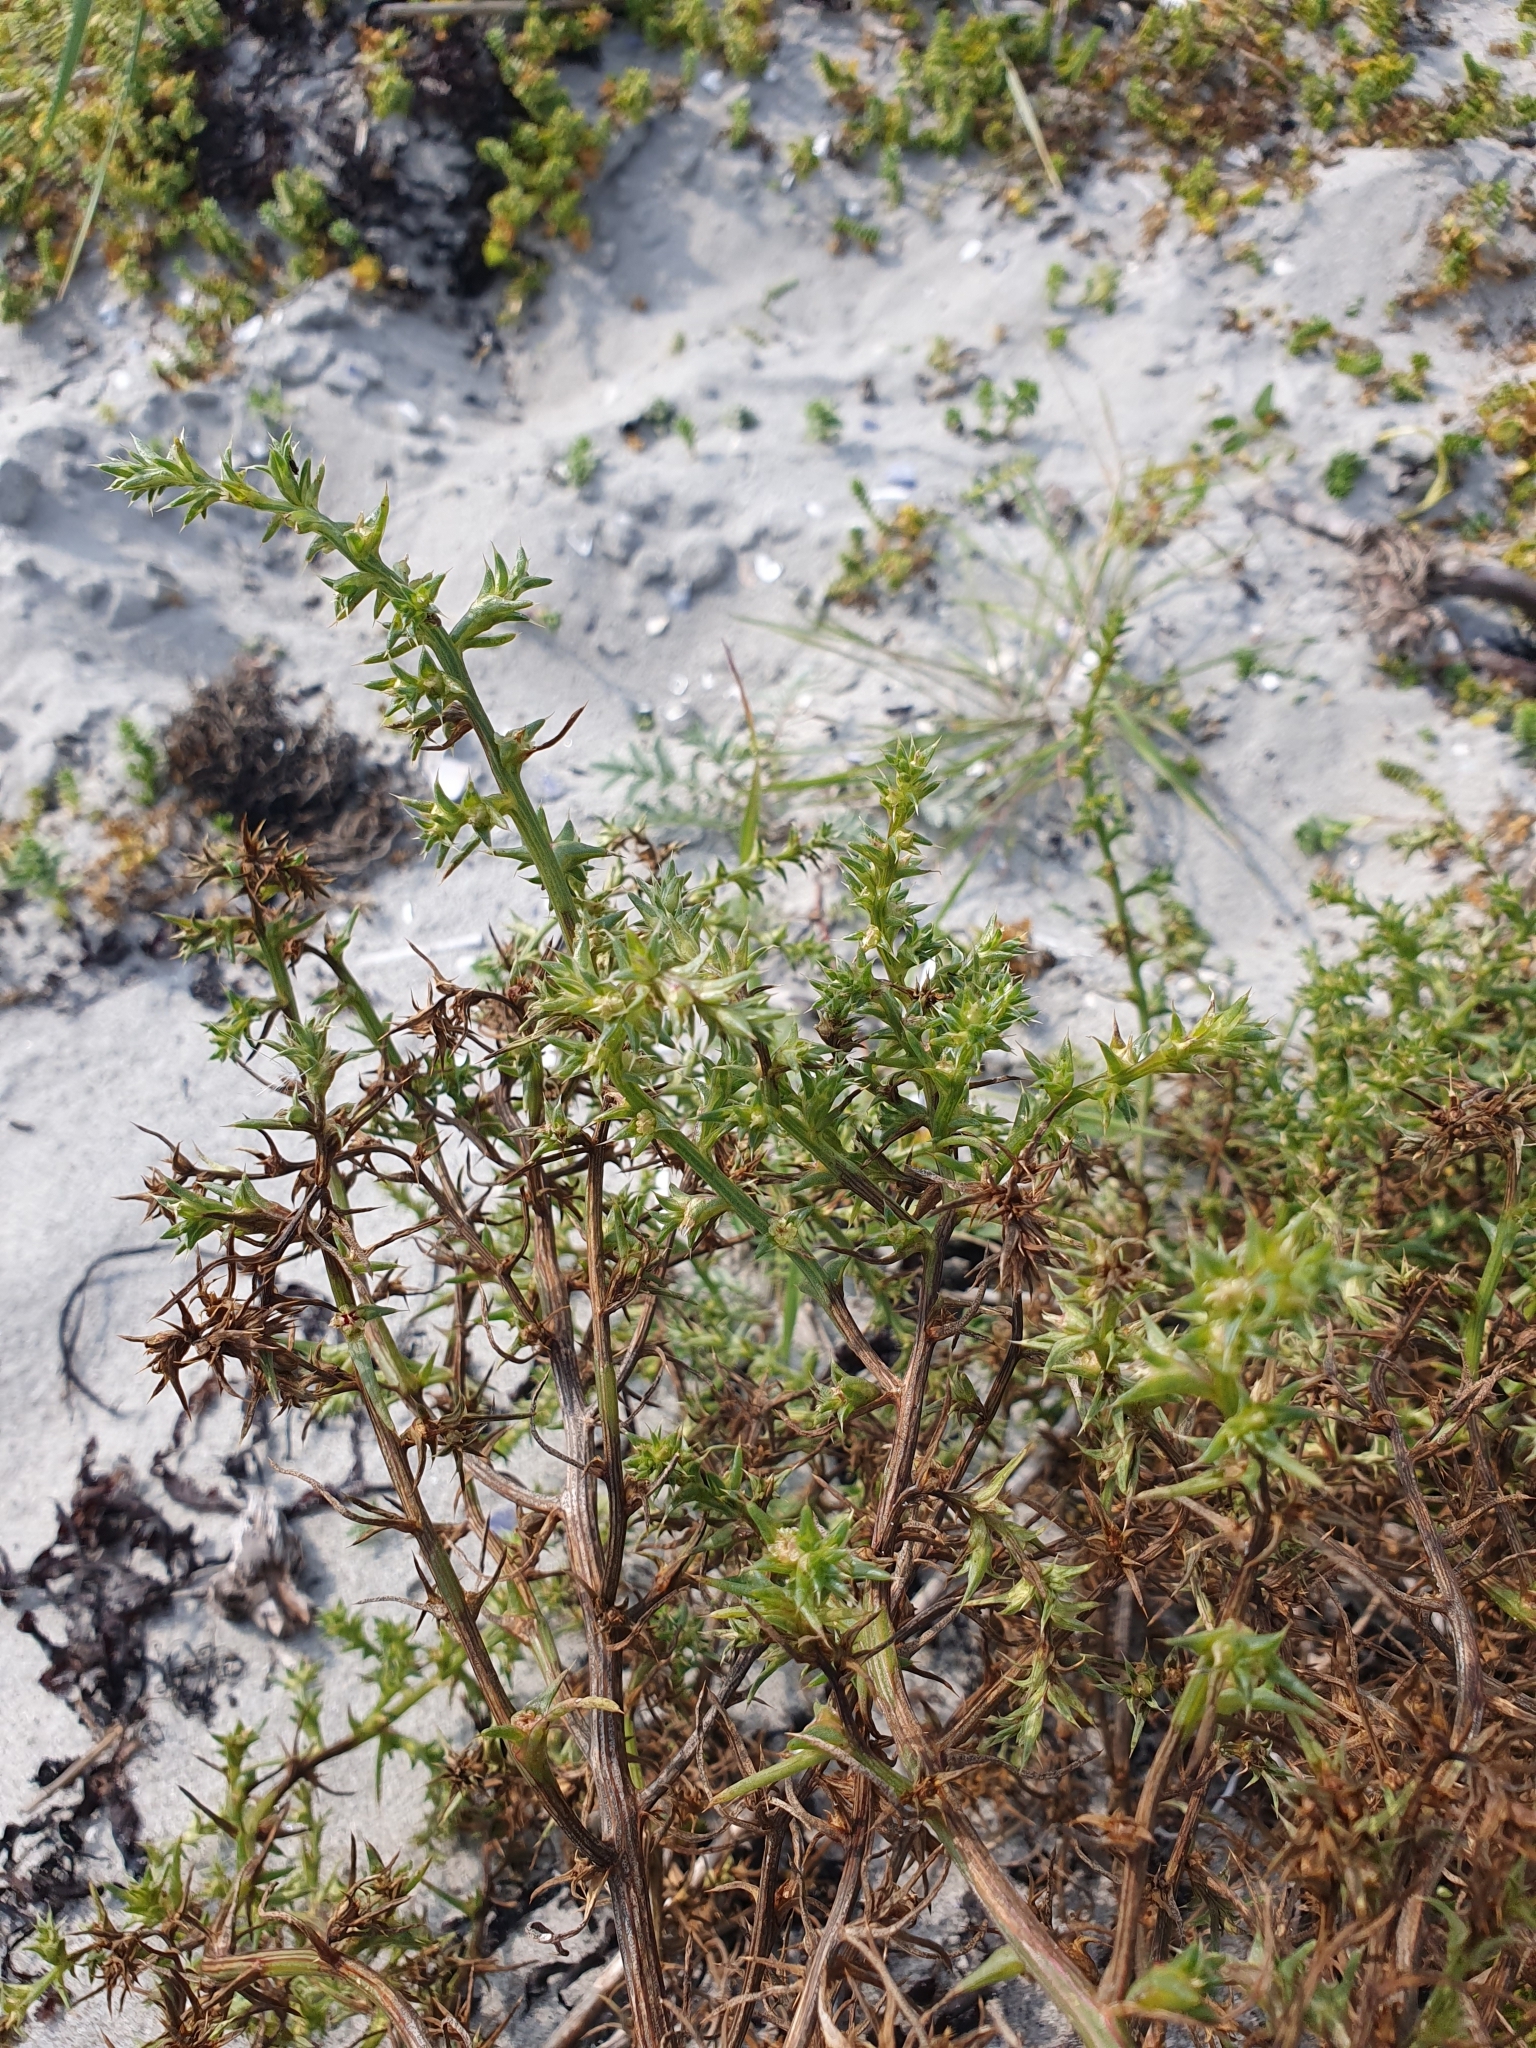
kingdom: Plantae
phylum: Tracheophyta
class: Magnoliopsida
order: Caryophyllales
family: Amaranthaceae
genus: Salsola
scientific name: Salsola kali
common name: Saltwort
